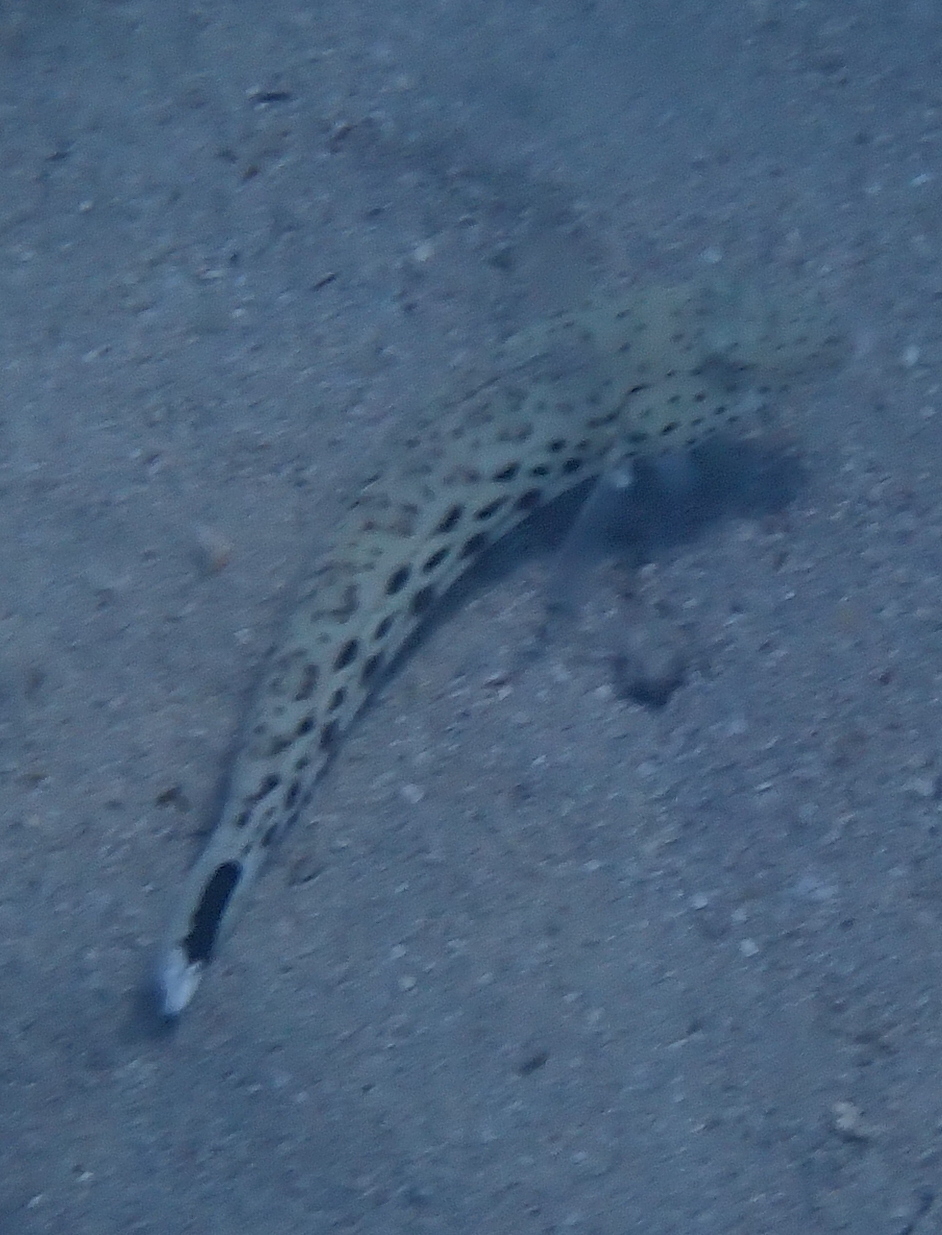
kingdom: Animalia
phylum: Chordata
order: Perciformes
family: Pinguipedidae
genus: Parapercis
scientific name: Parapercis hexophtalma
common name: Speckled sandperch
